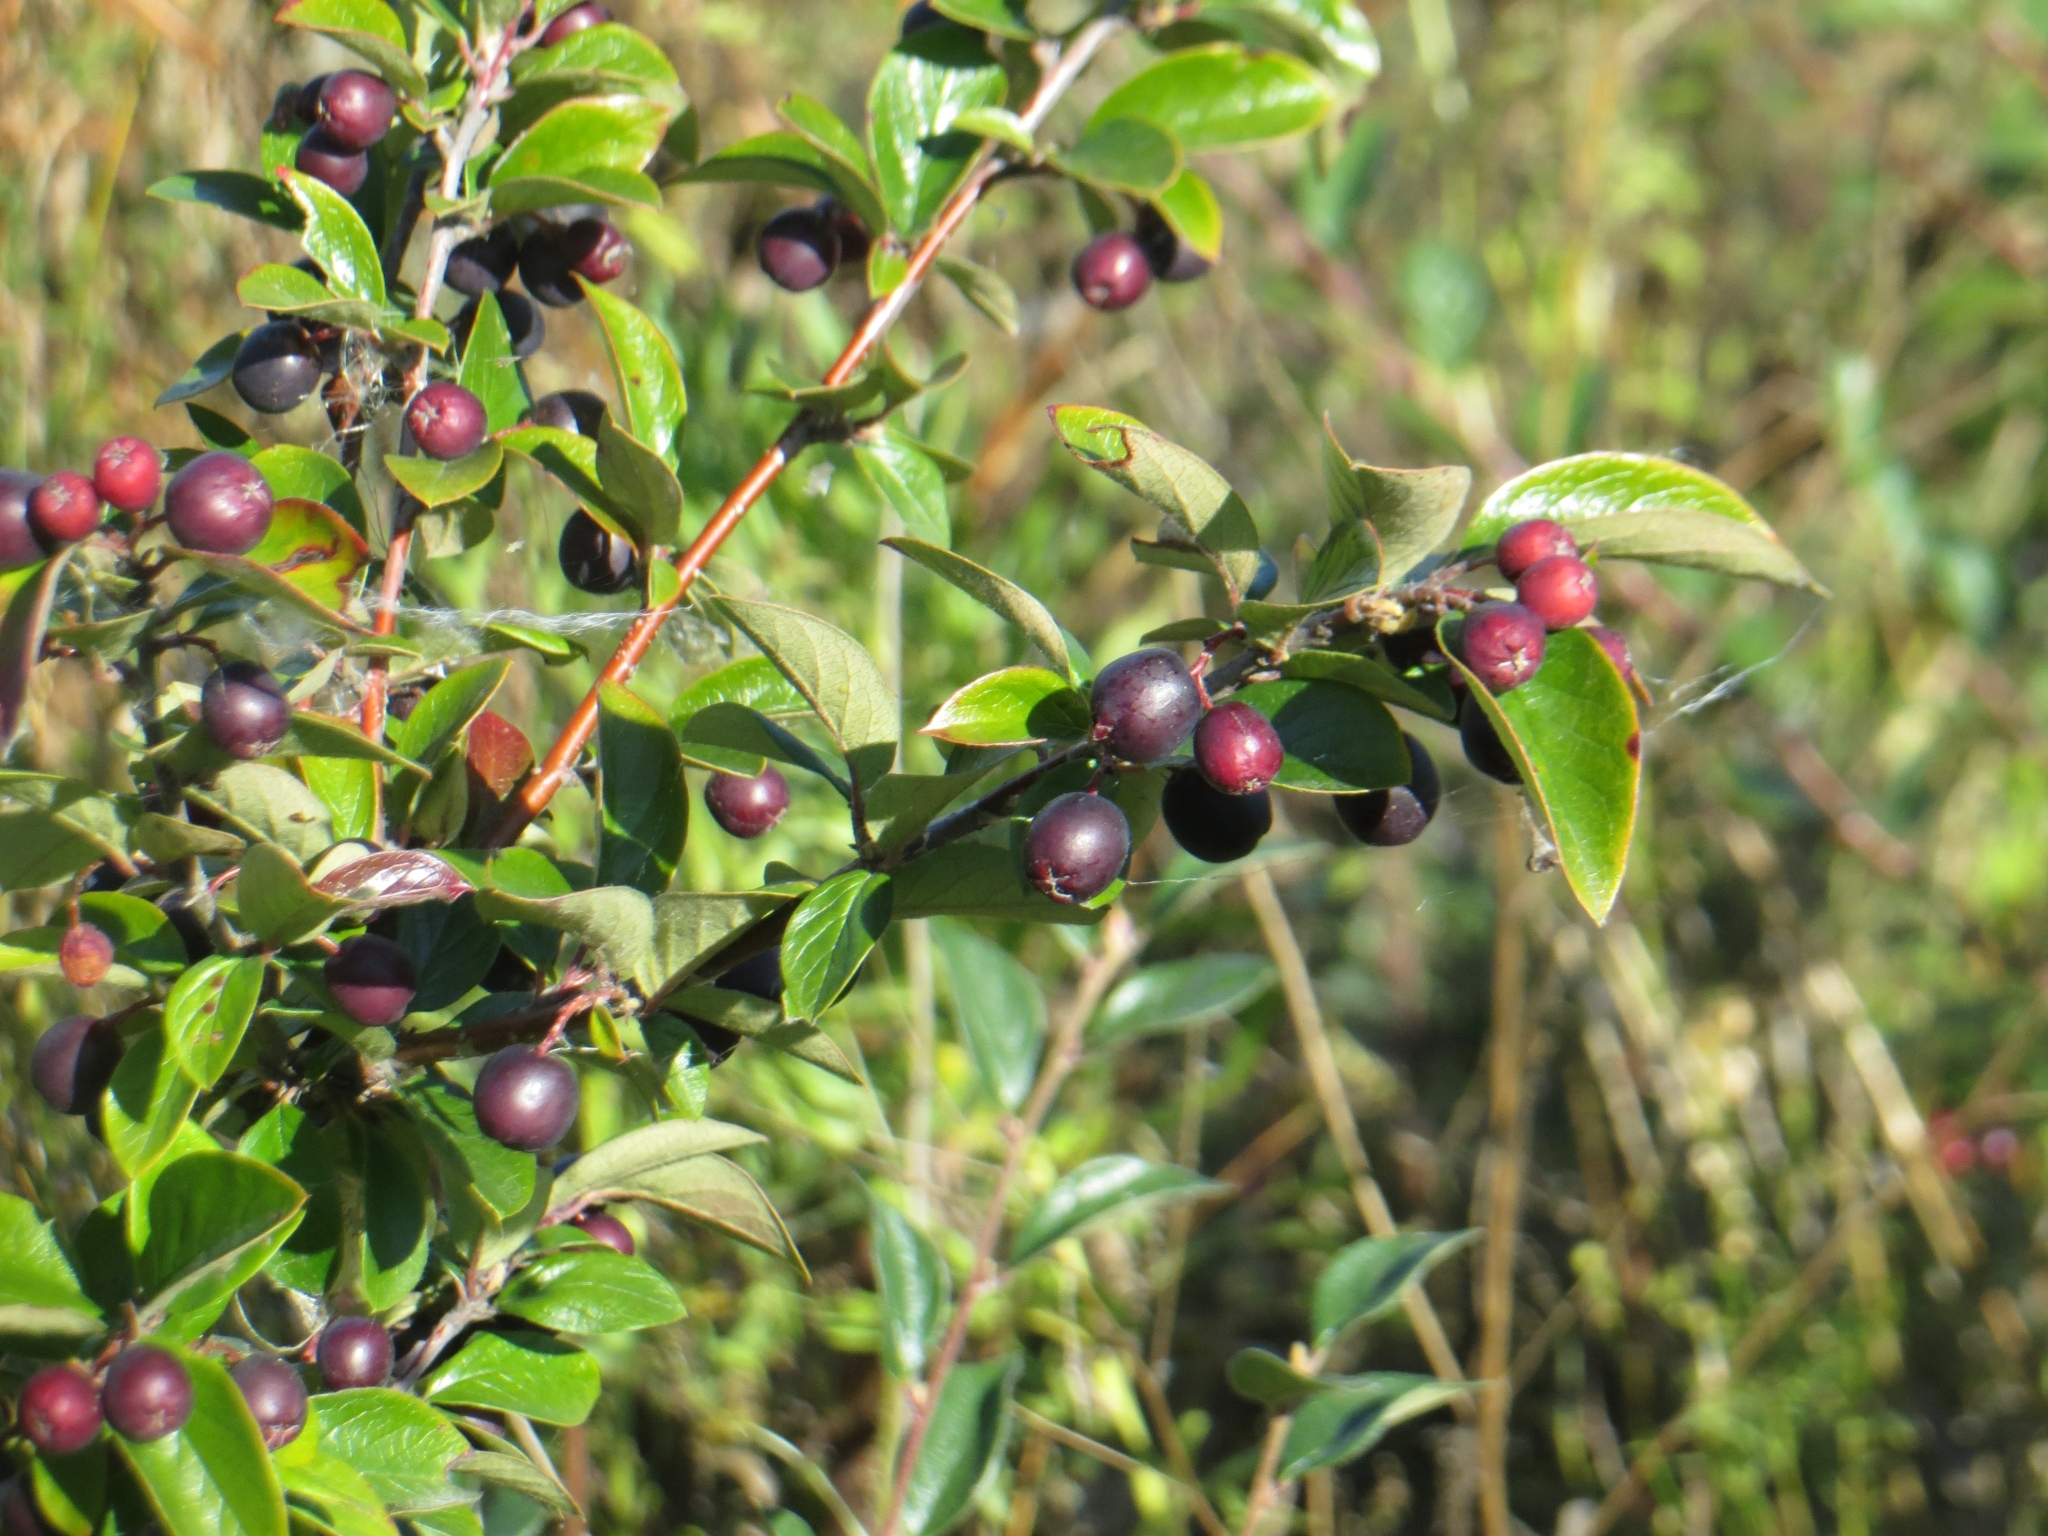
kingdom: Plantae
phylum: Tracheophyta
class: Magnoliopsida
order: Rosales
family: Rosaceae
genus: Cotoneaster
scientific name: Cotoneaster acutifolius
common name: Peking cotoneaster
